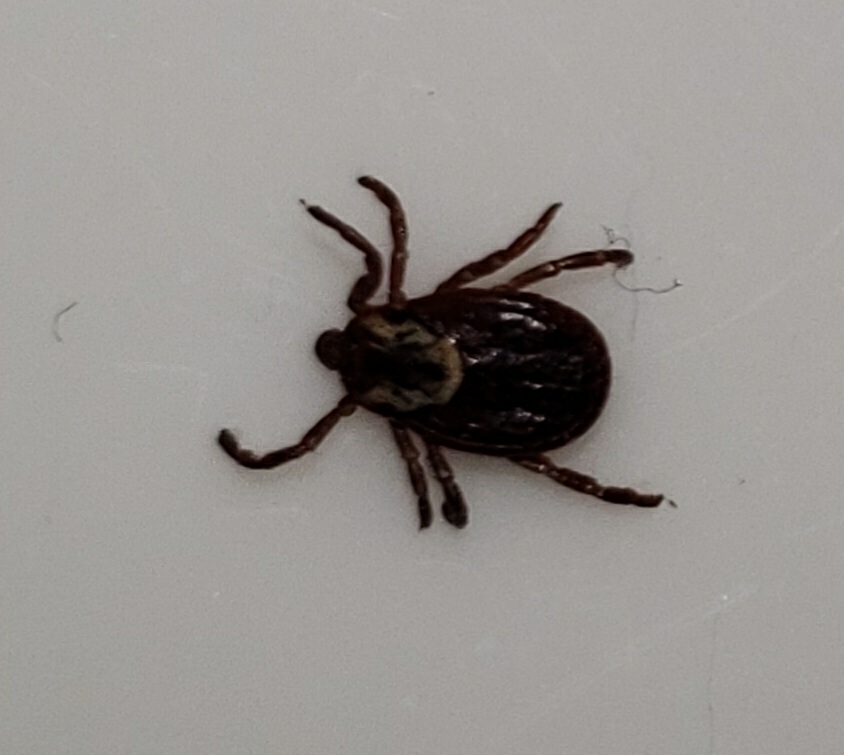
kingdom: Animalia
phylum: Arthropoda
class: Arachnida
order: Ixodida
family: Ixodidae
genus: Dermacentor
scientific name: Dermacentor variabilis
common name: American dog tick
